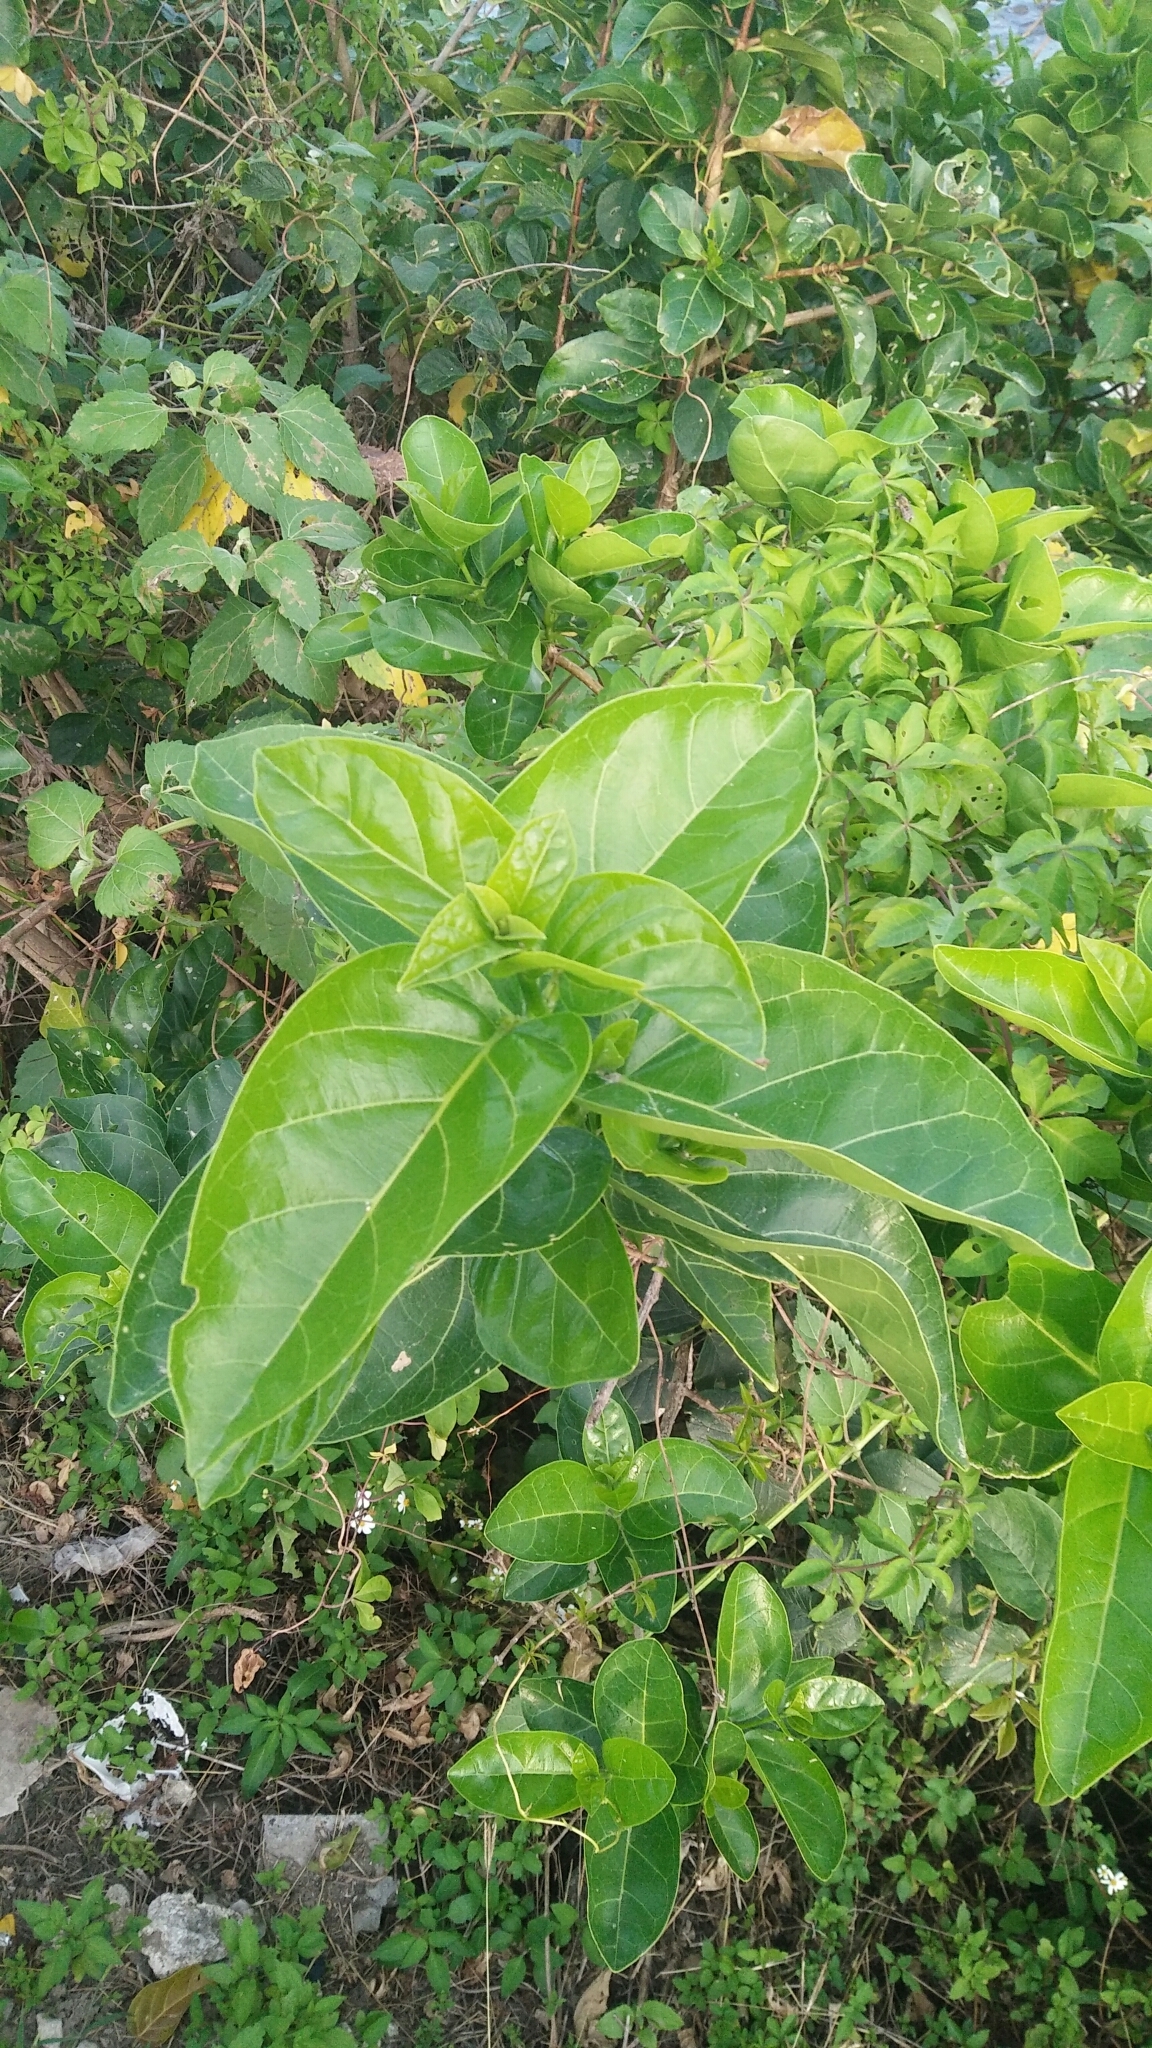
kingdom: Plantae
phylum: Tracheophyta
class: Magnoliopsida
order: Lamiales
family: Lamiaceae
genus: Premna
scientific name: Premna serratifolia
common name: Bastard guelder
